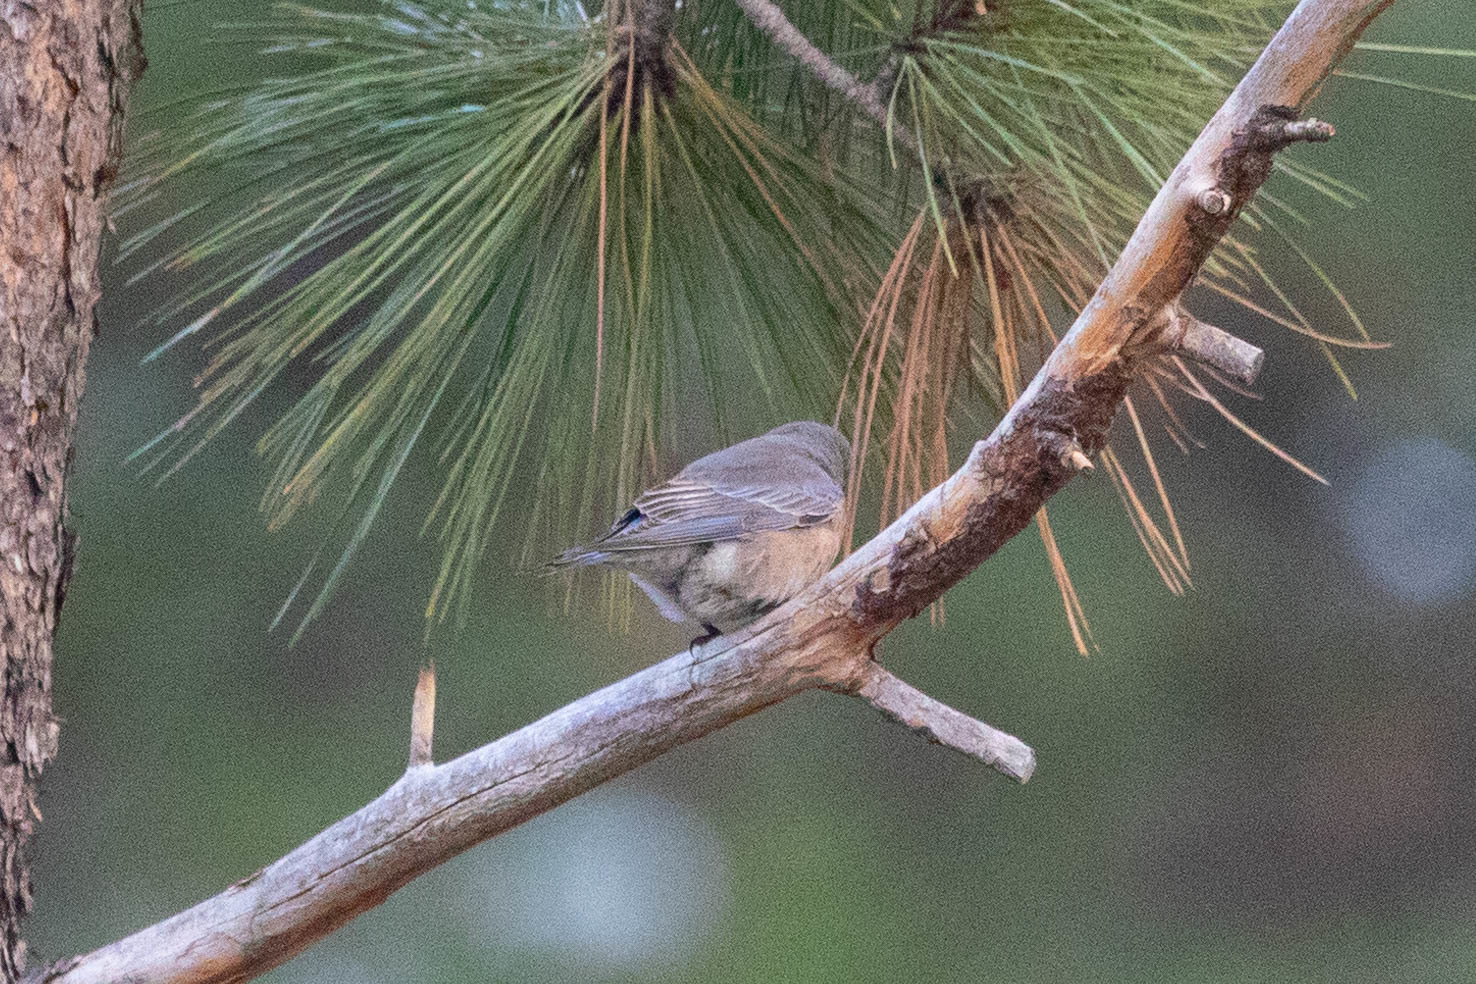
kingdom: Animalia
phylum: Chordata
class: Aves
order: Passeriformes
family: Turdidae
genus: Sialia
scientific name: Sialia mexicana
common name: Western bluebird
